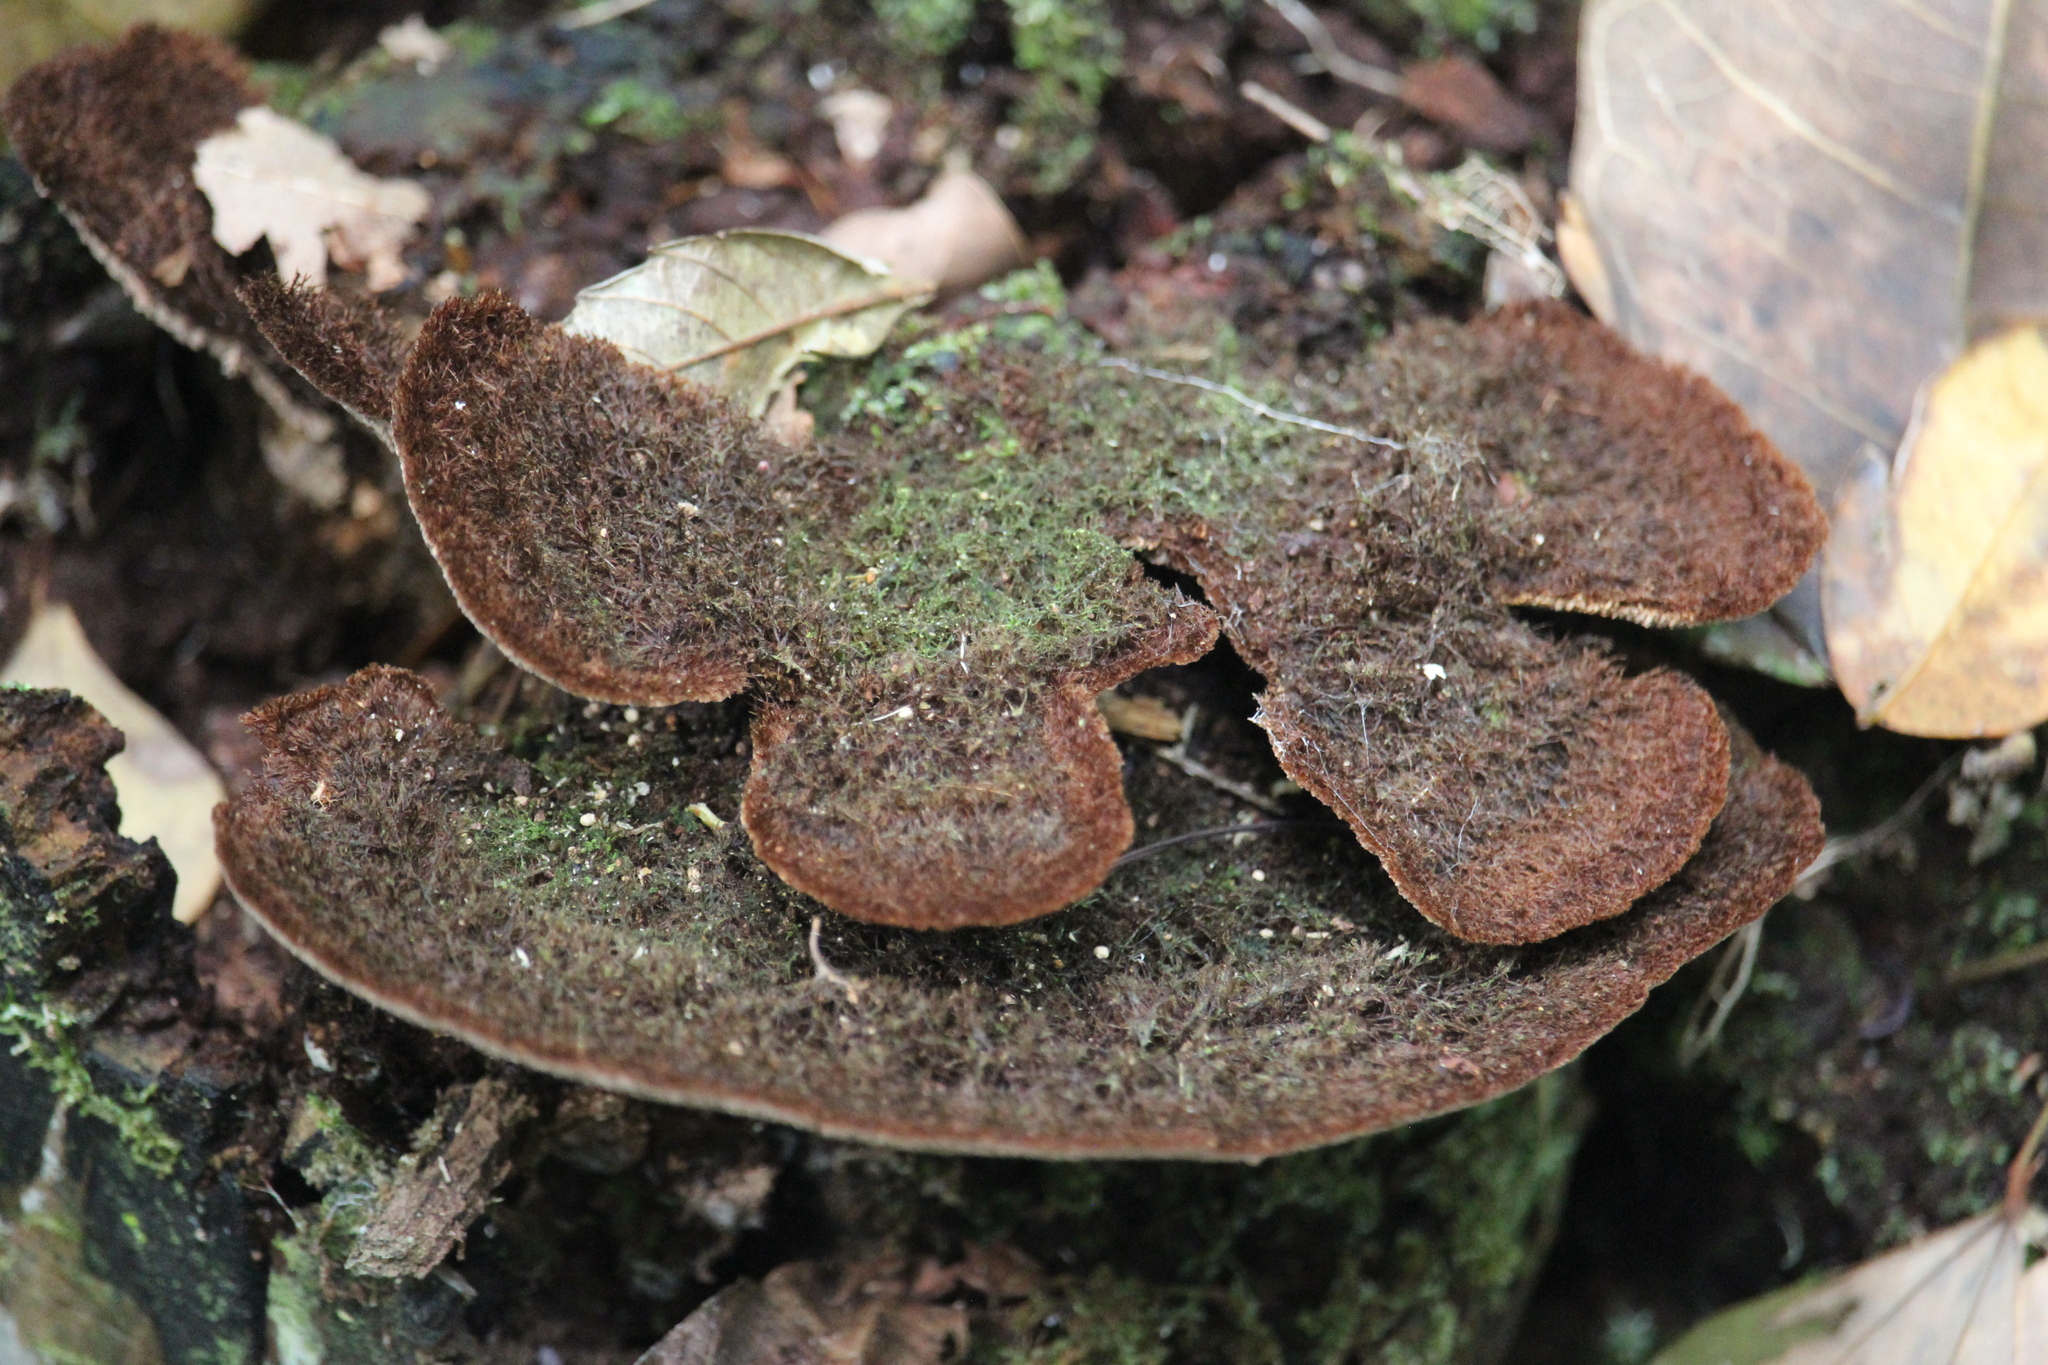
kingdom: Fungi
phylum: Basidiomycota
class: Agaricomycetes
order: Polyporales
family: Cerrenaceae
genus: Cerrena
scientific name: Cerrena hydnoides
